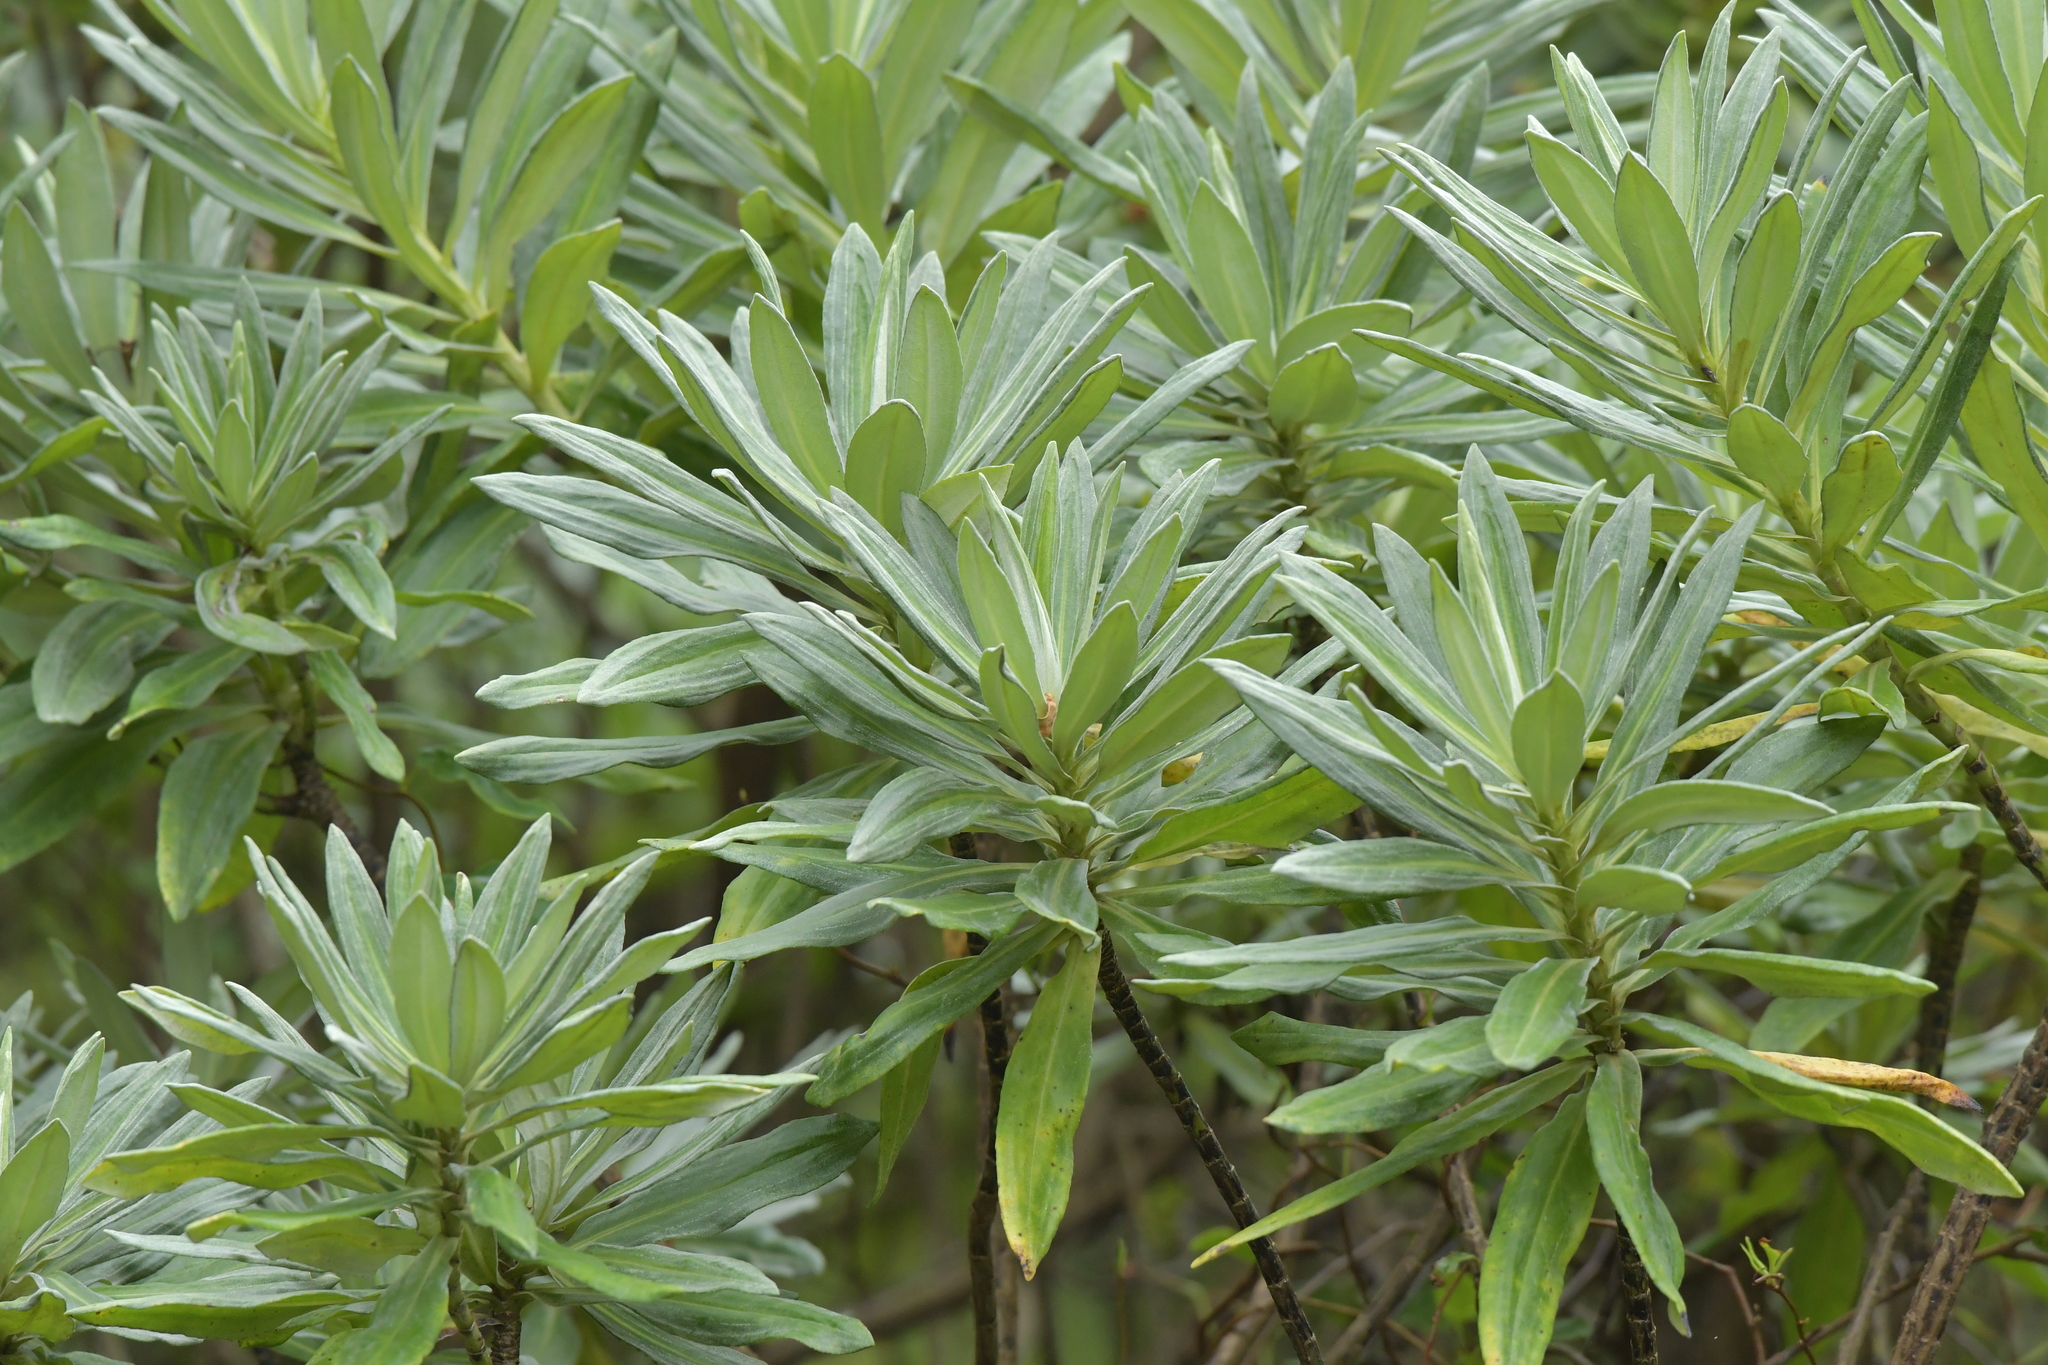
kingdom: Plantae
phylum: Tracheophyta
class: Magnoliopsida
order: Asterales
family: Asteraceae
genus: Brachyglottis
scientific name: Brachyglottis huntii
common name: Chatham island christmas tree
